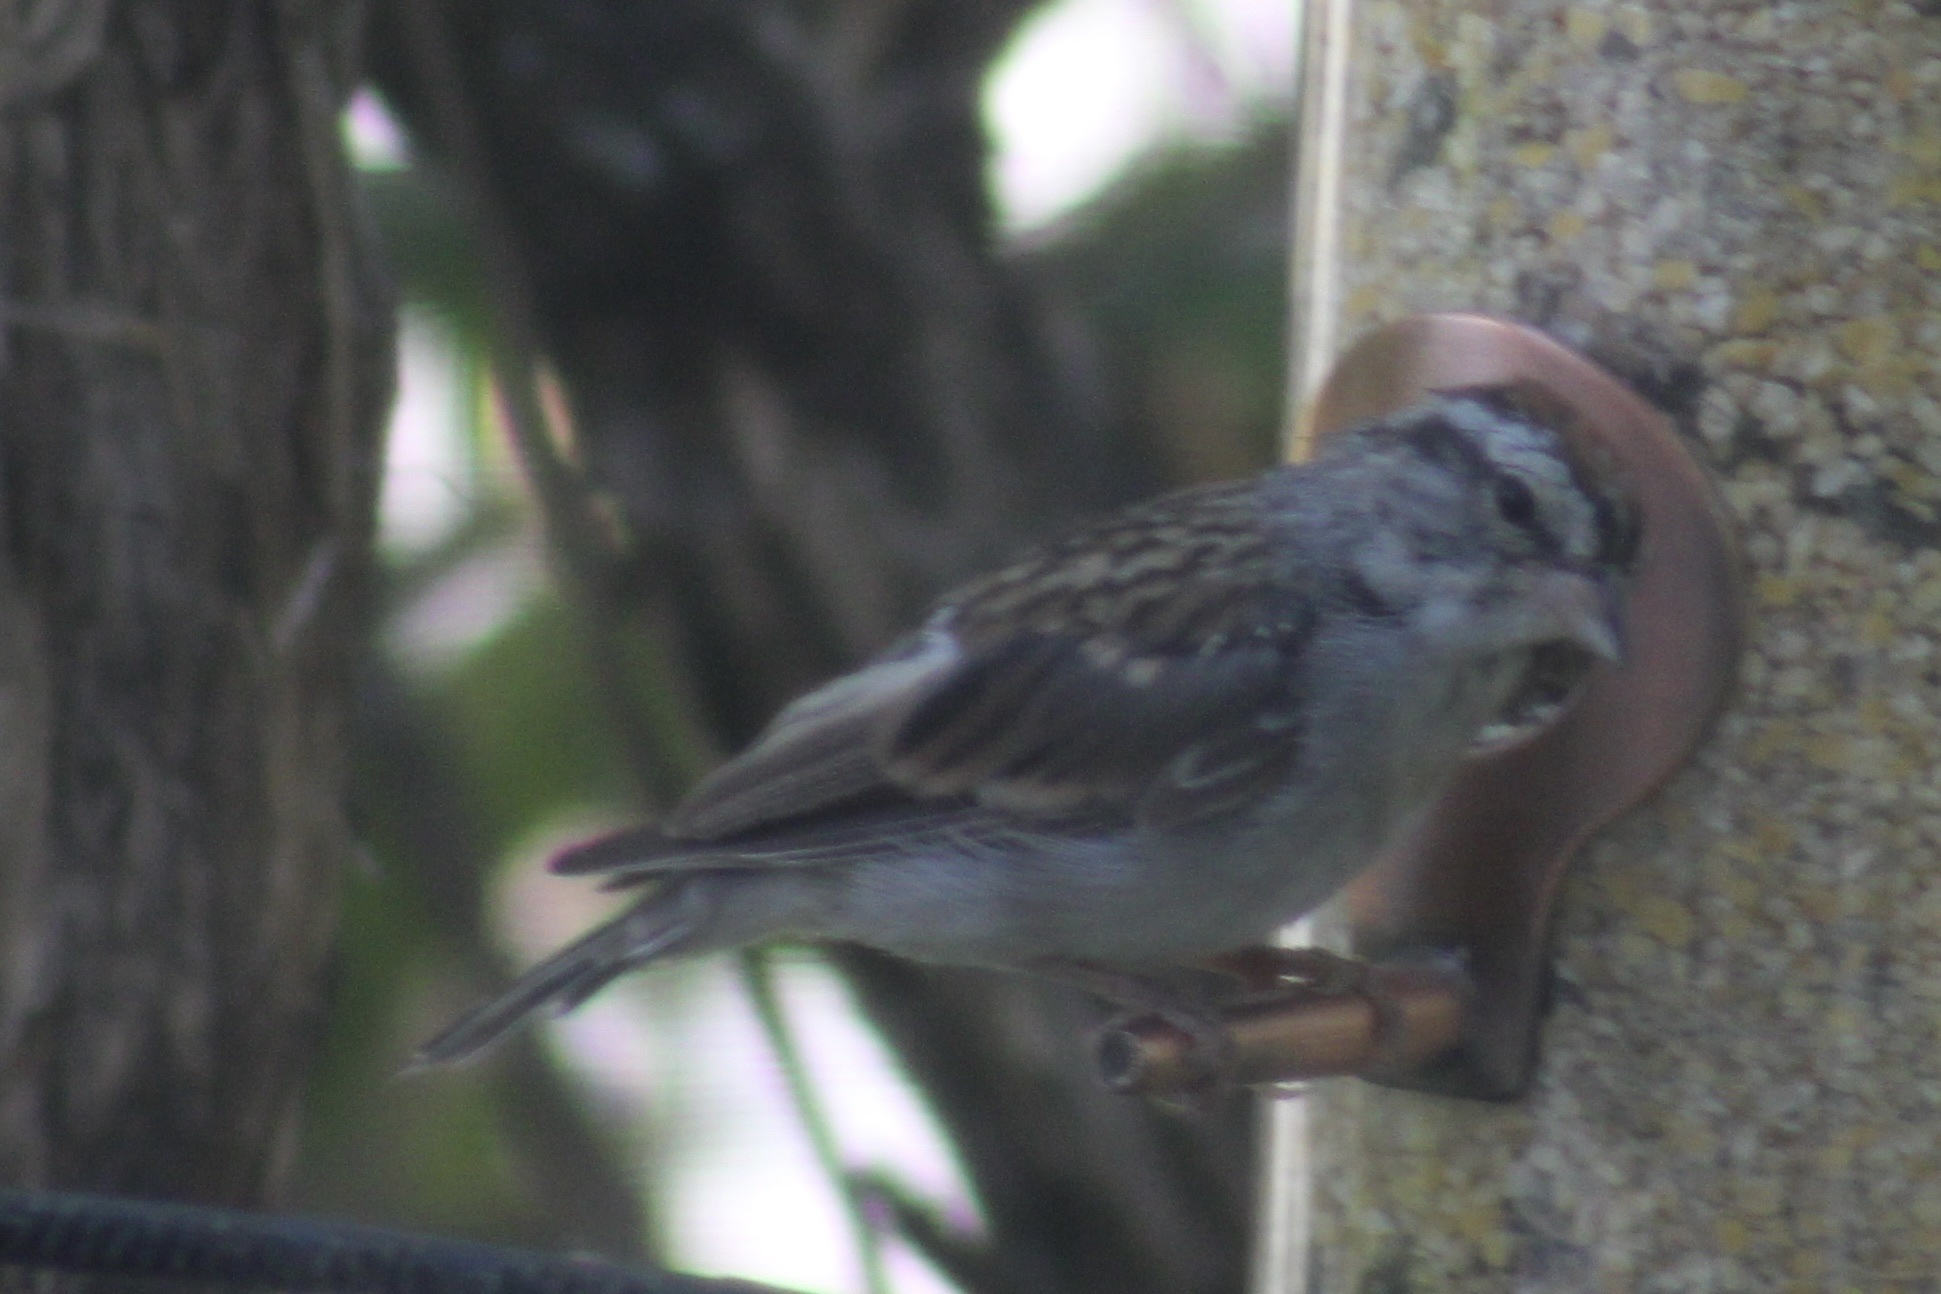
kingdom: Animalia
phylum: Chordata
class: Aves
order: Passeriformes
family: Passerellidae
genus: Spizella
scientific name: Spizella passerina
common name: Chipping sparrow
